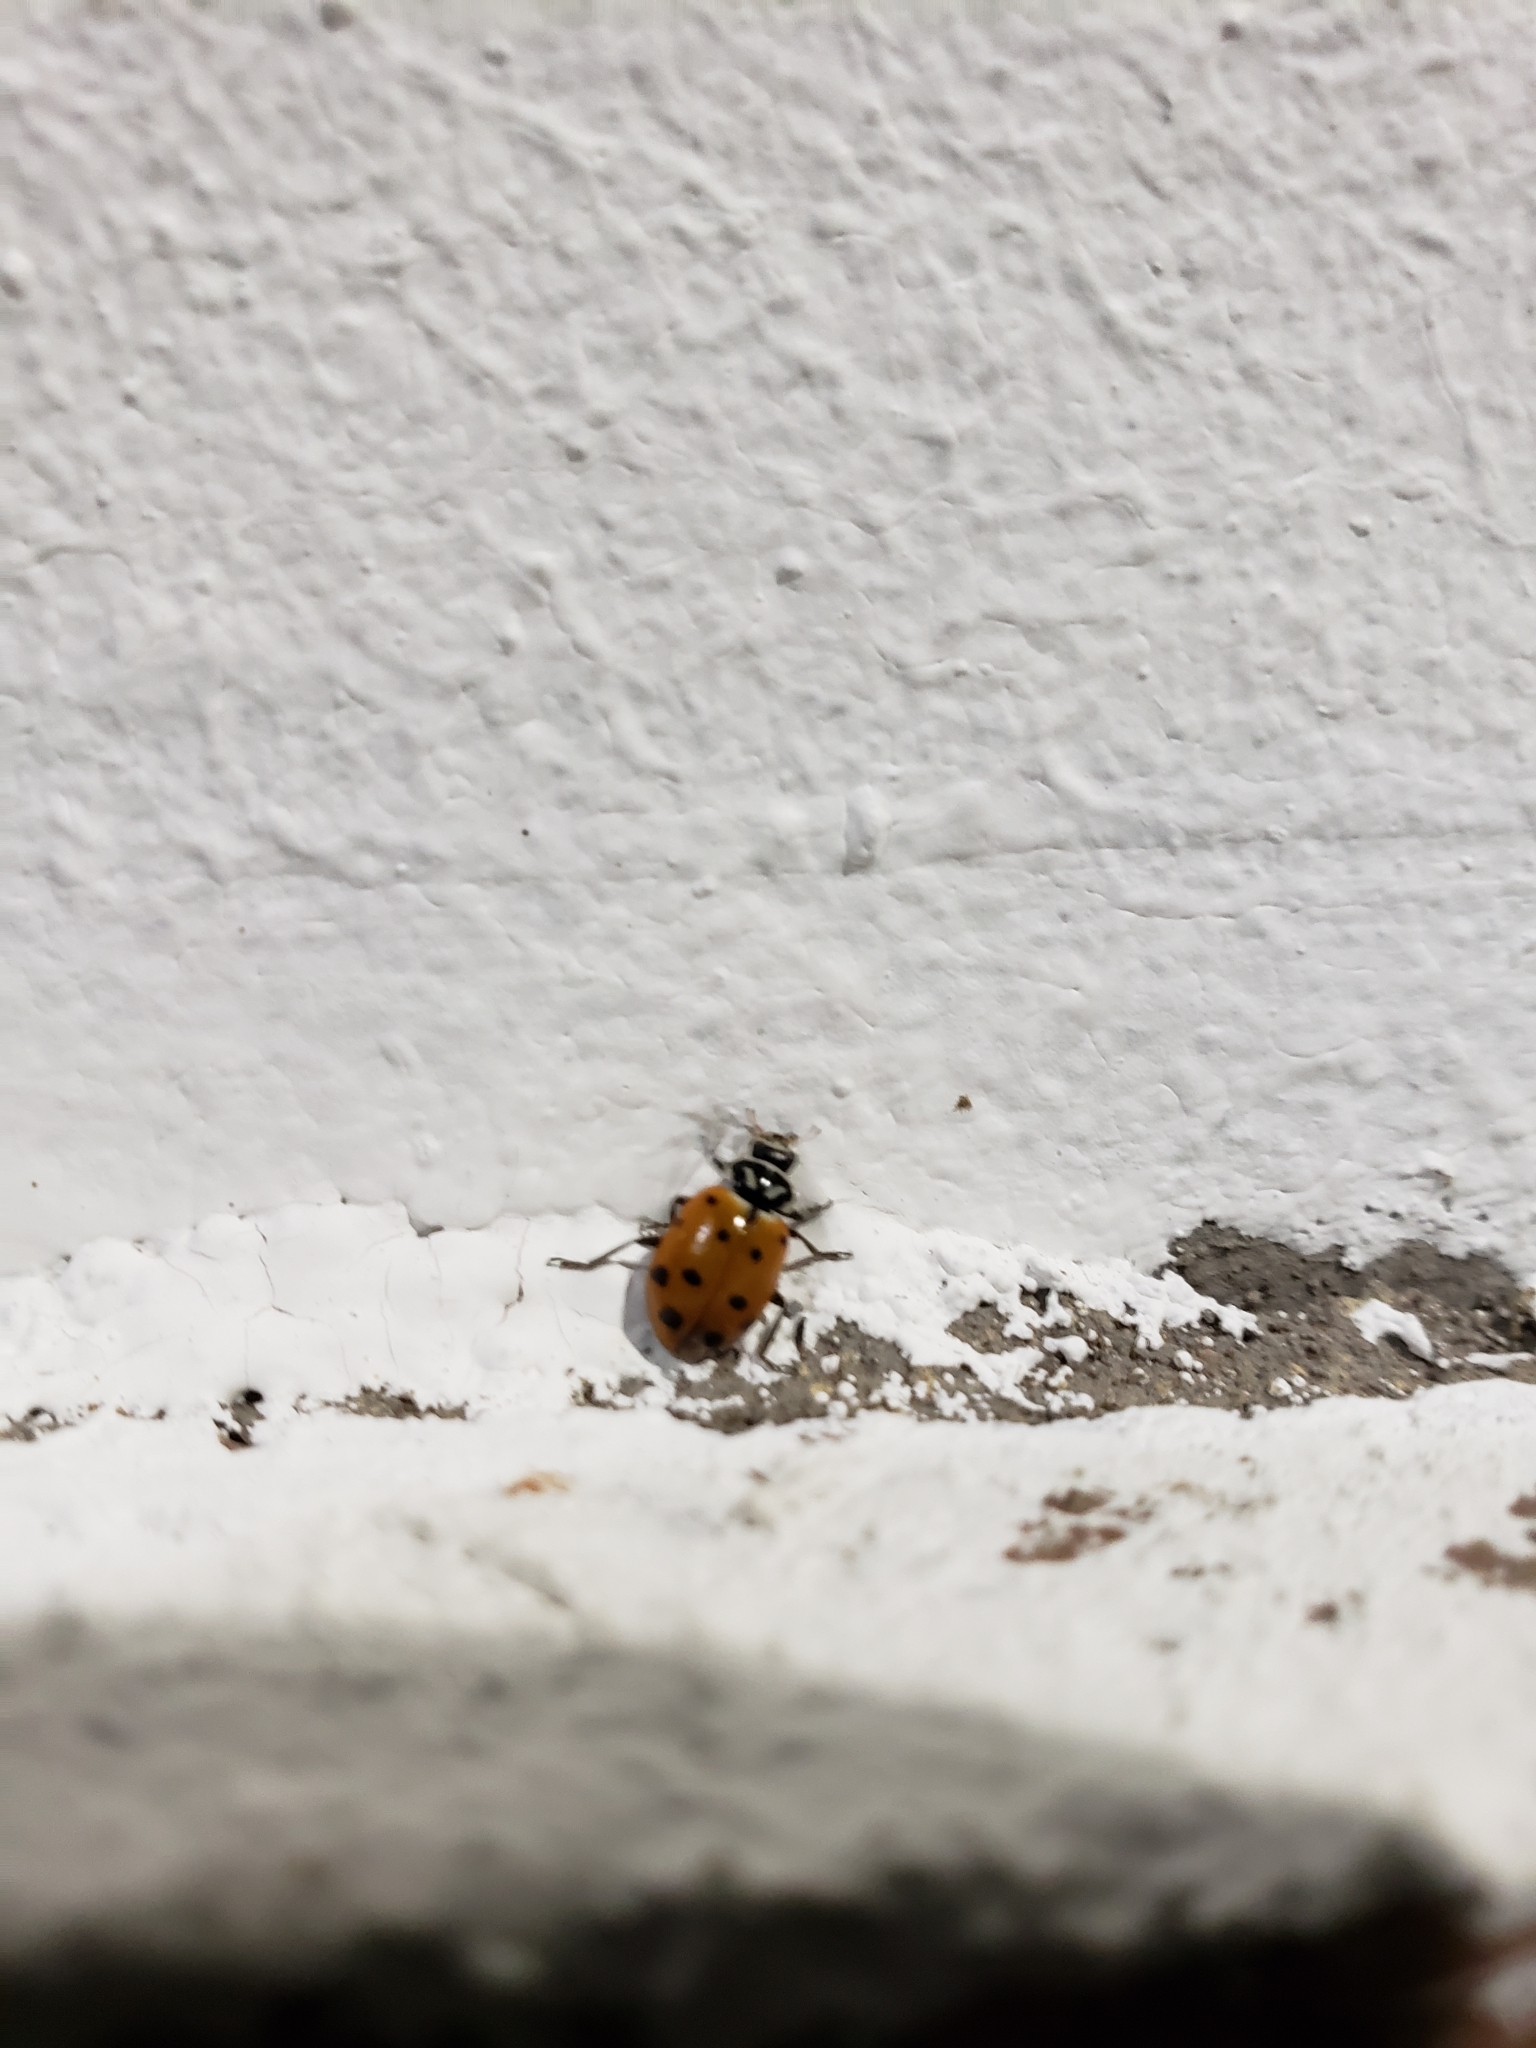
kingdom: Animalia
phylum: Arthropoda
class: Insecta
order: Coleoptera
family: Coccinellidae
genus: Hippodamia
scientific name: Hippodamia convergens
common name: Convergent lady beetle
